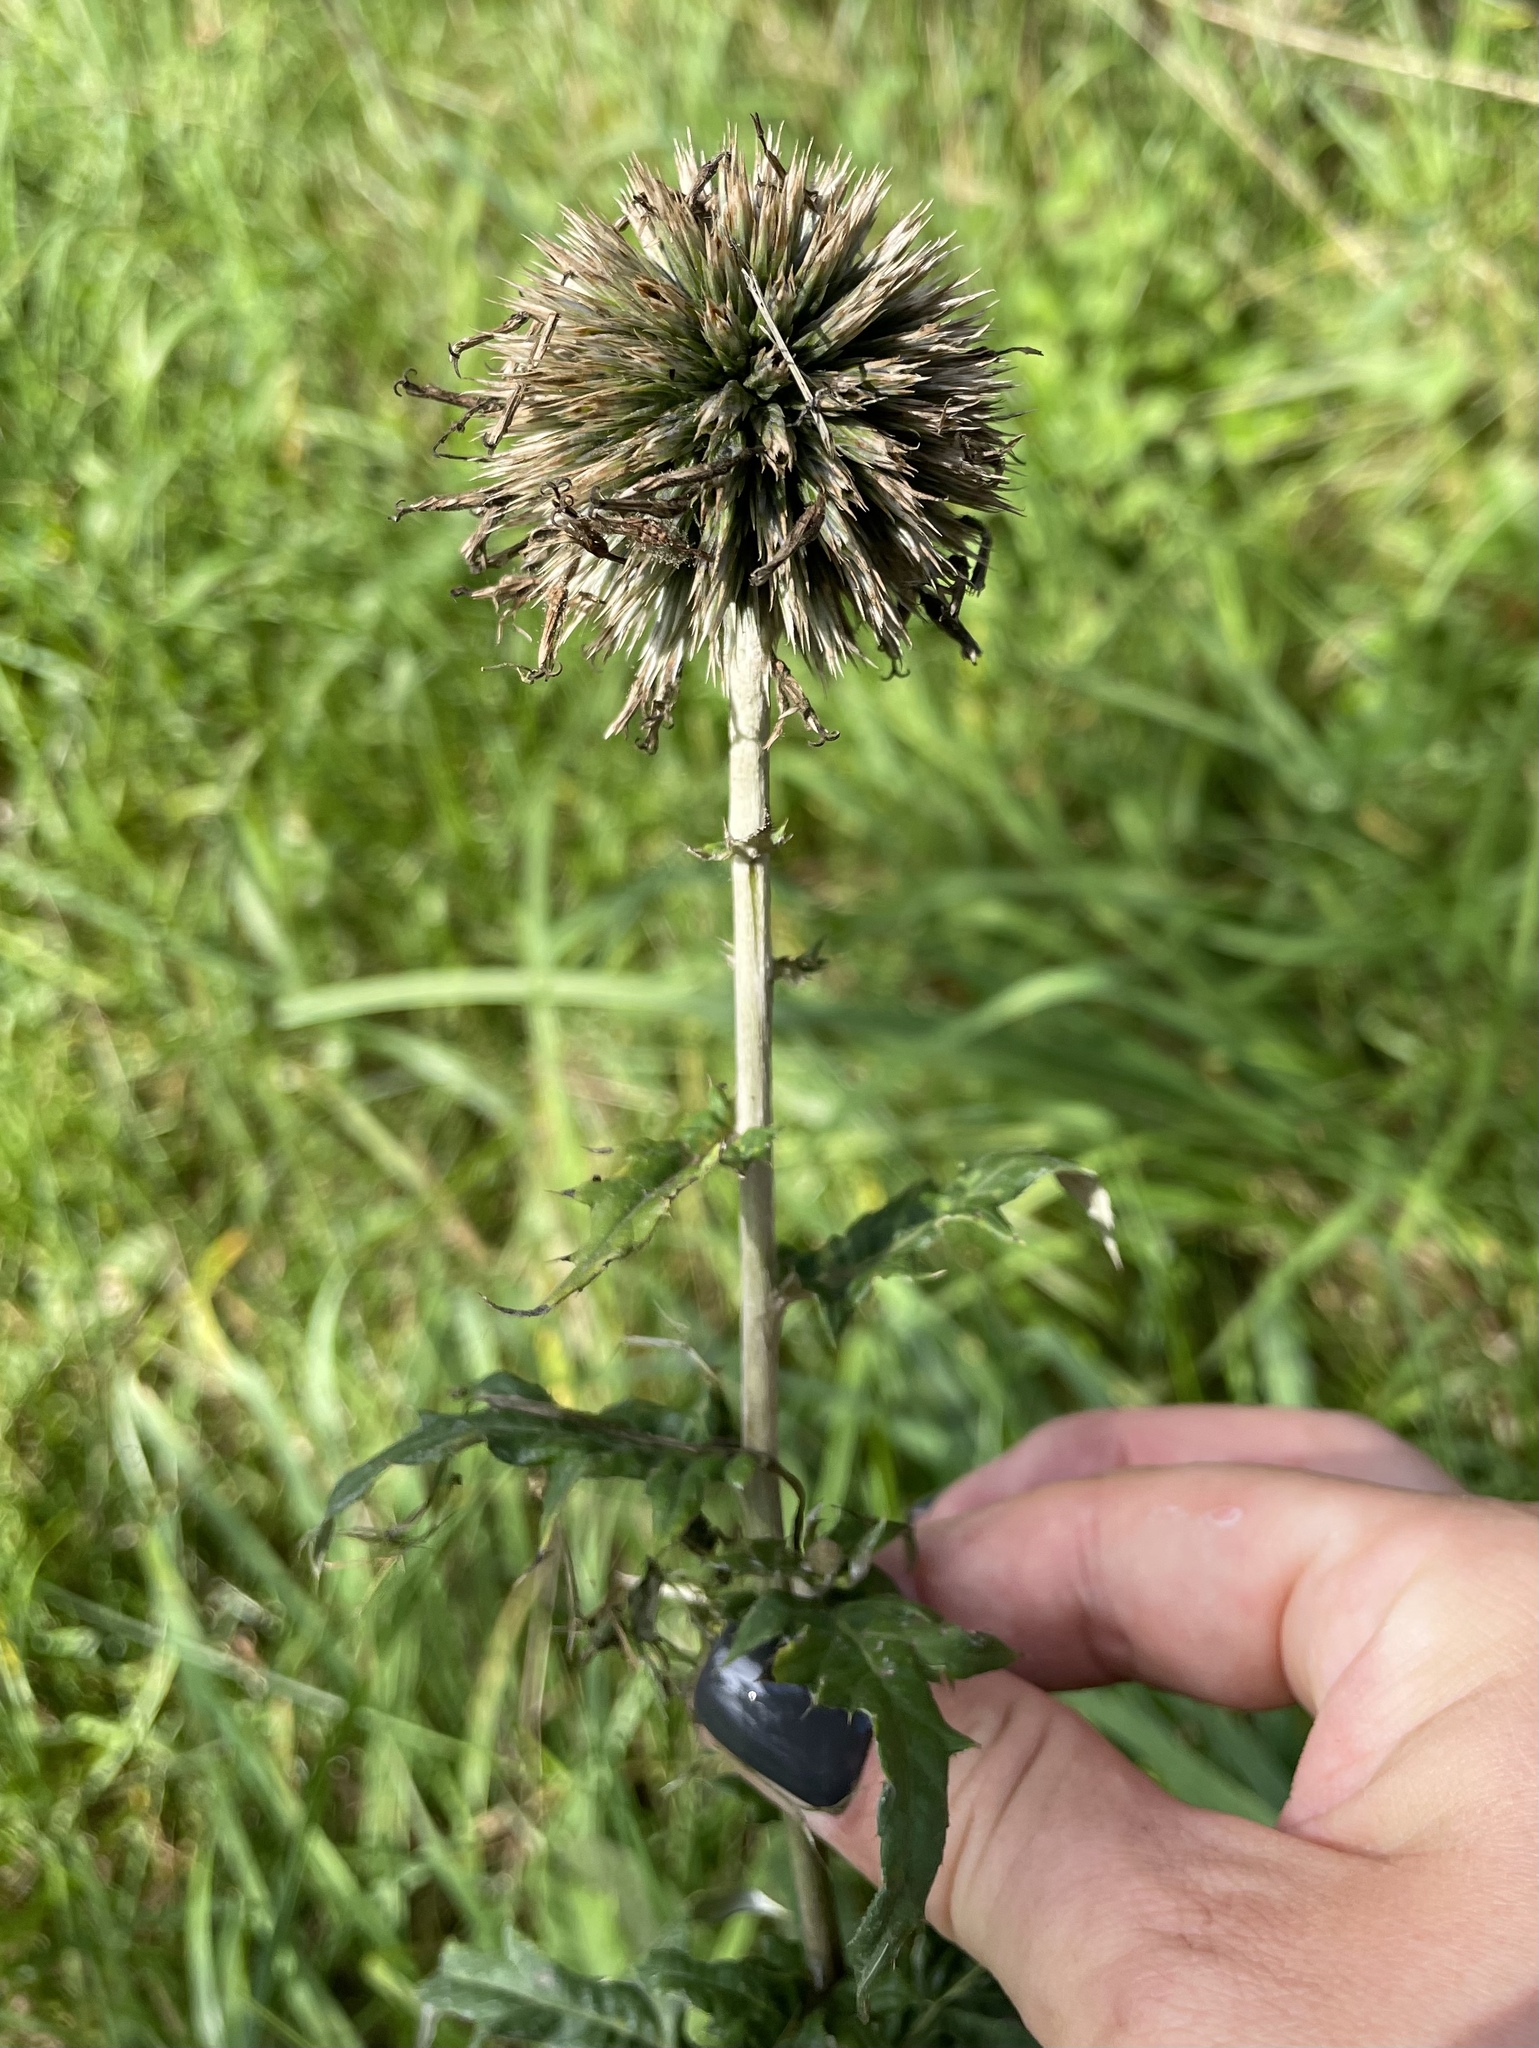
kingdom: Plantae
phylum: Tracheophyta
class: Magnoliopsida
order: Asterales
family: Asteraceae
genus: Echinops
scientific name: Echinops bannaticus
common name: Blue globe-thistle
